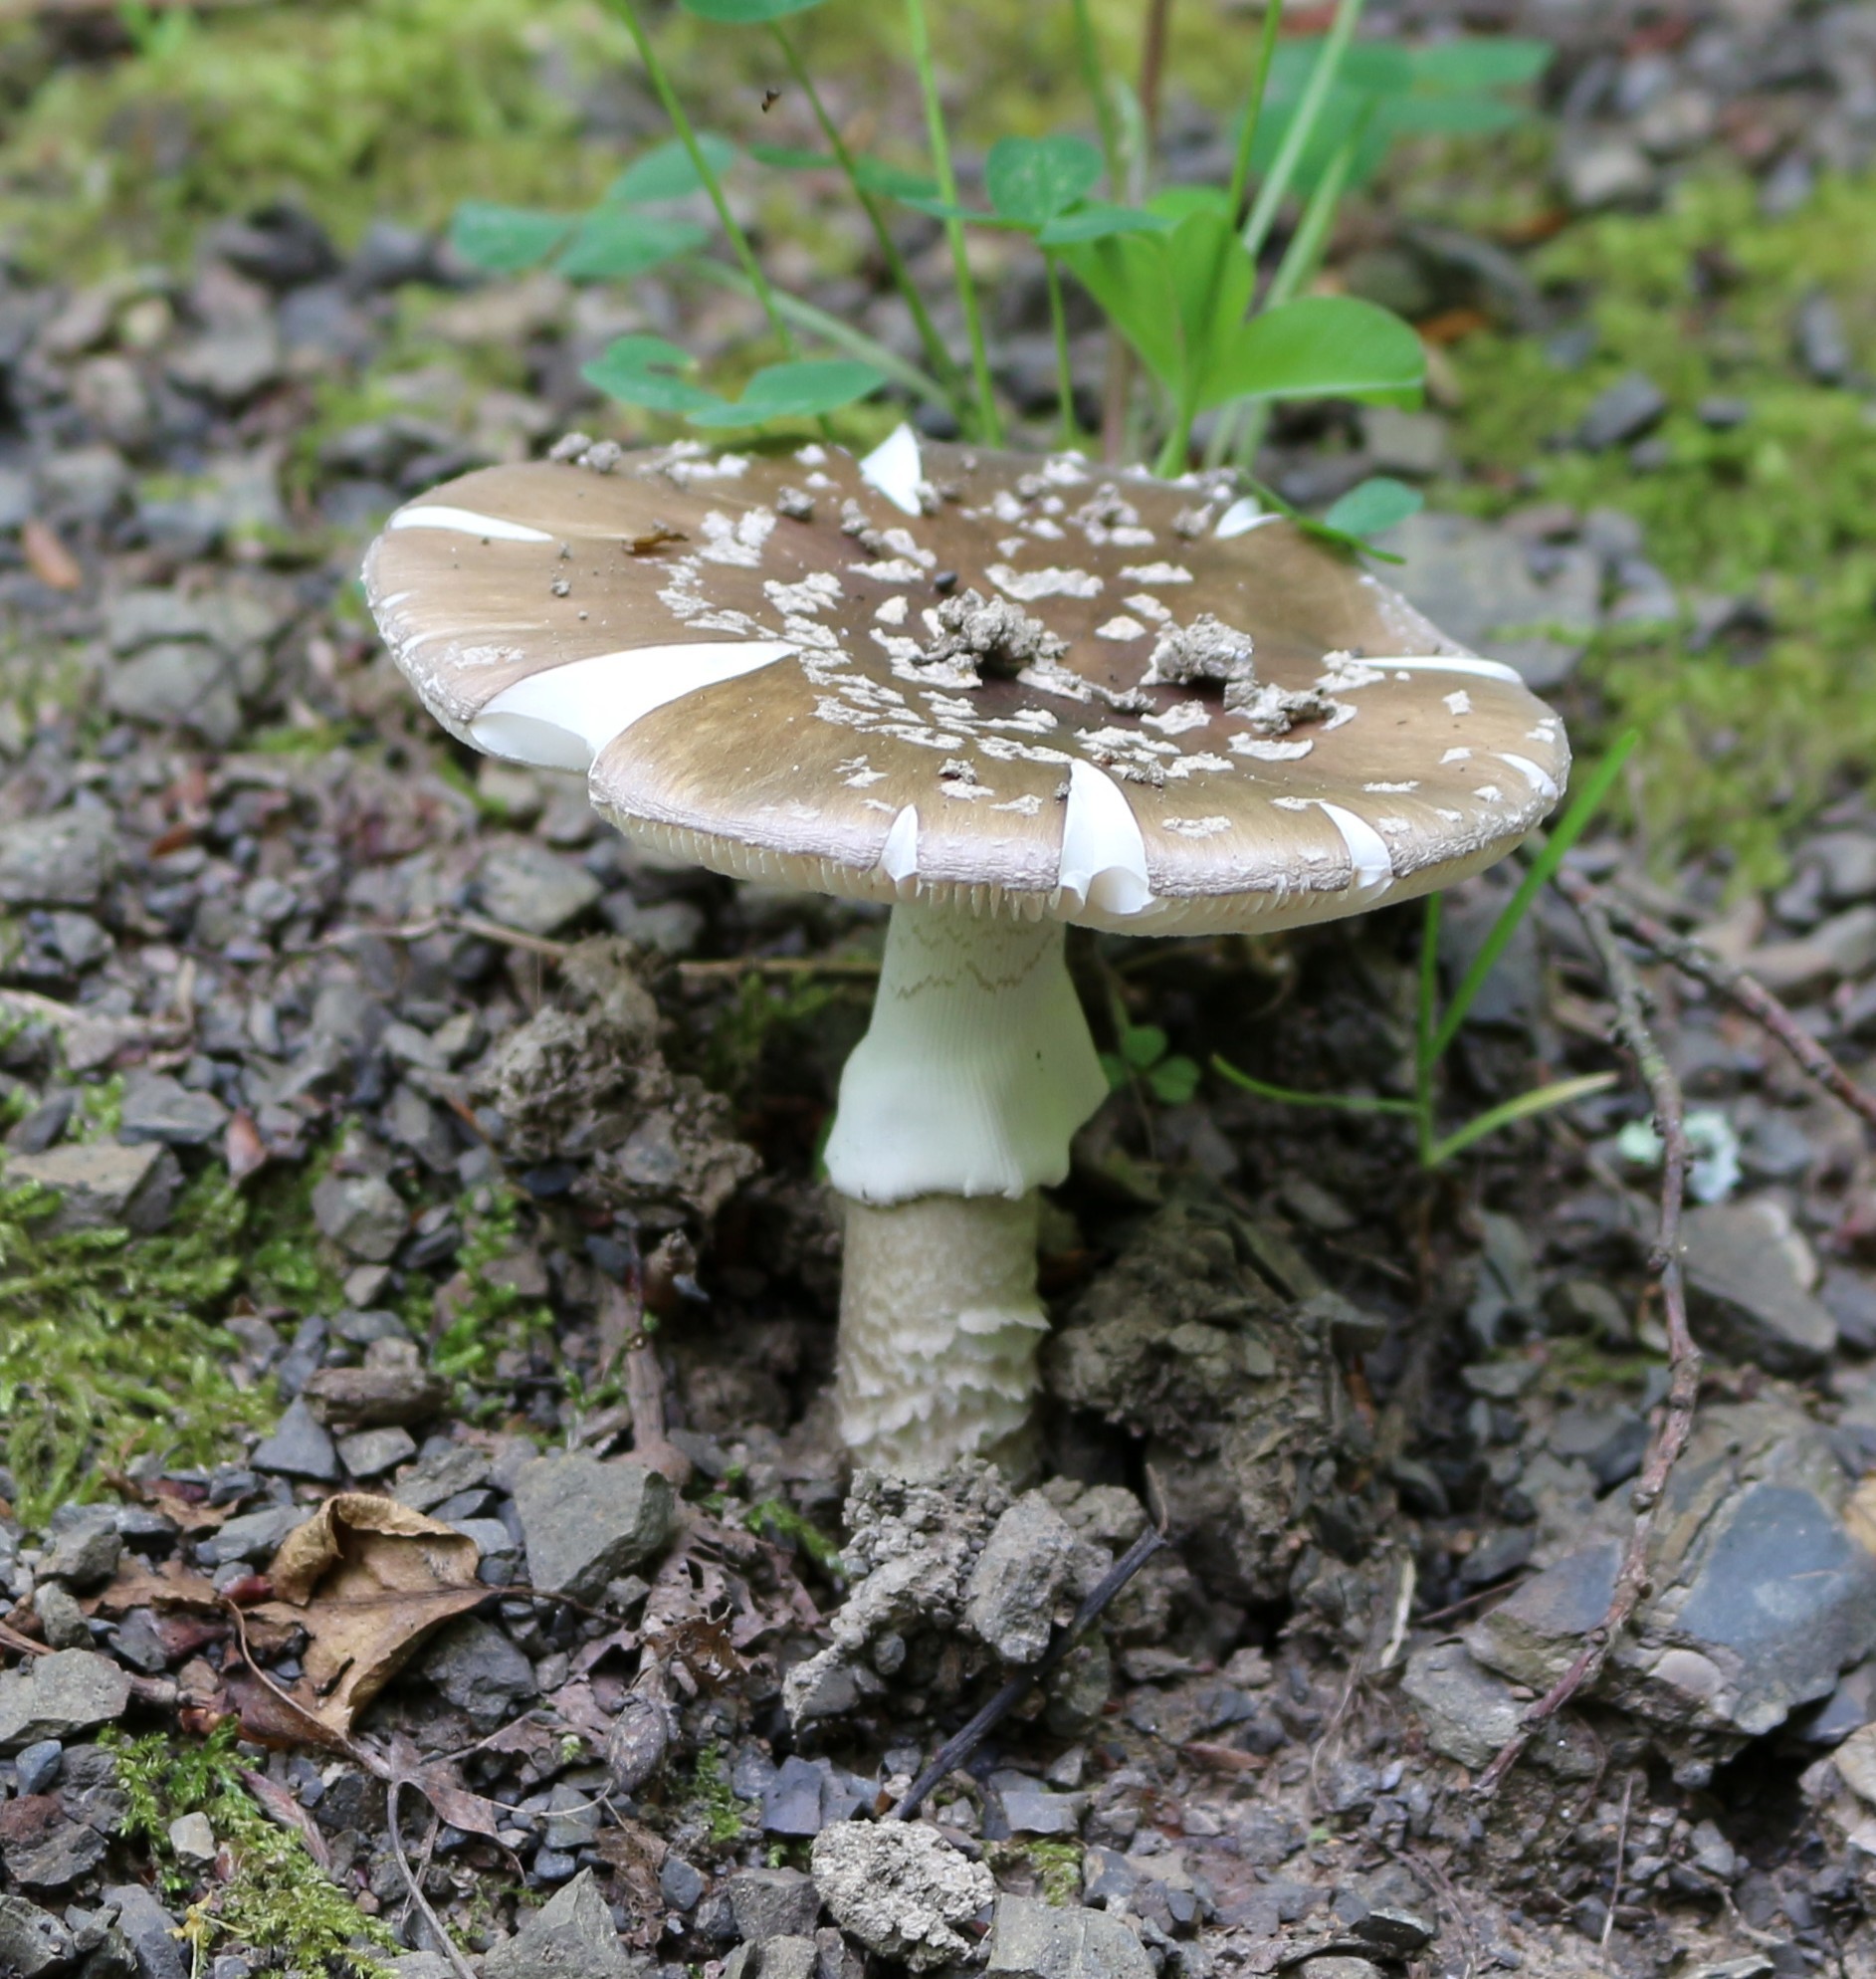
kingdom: Fungi
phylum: Basidiomycota
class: Agaricomycetes
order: Agaricales
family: Amanitaceae
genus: Amanita
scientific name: Amanita pantherina
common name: Panthercap
